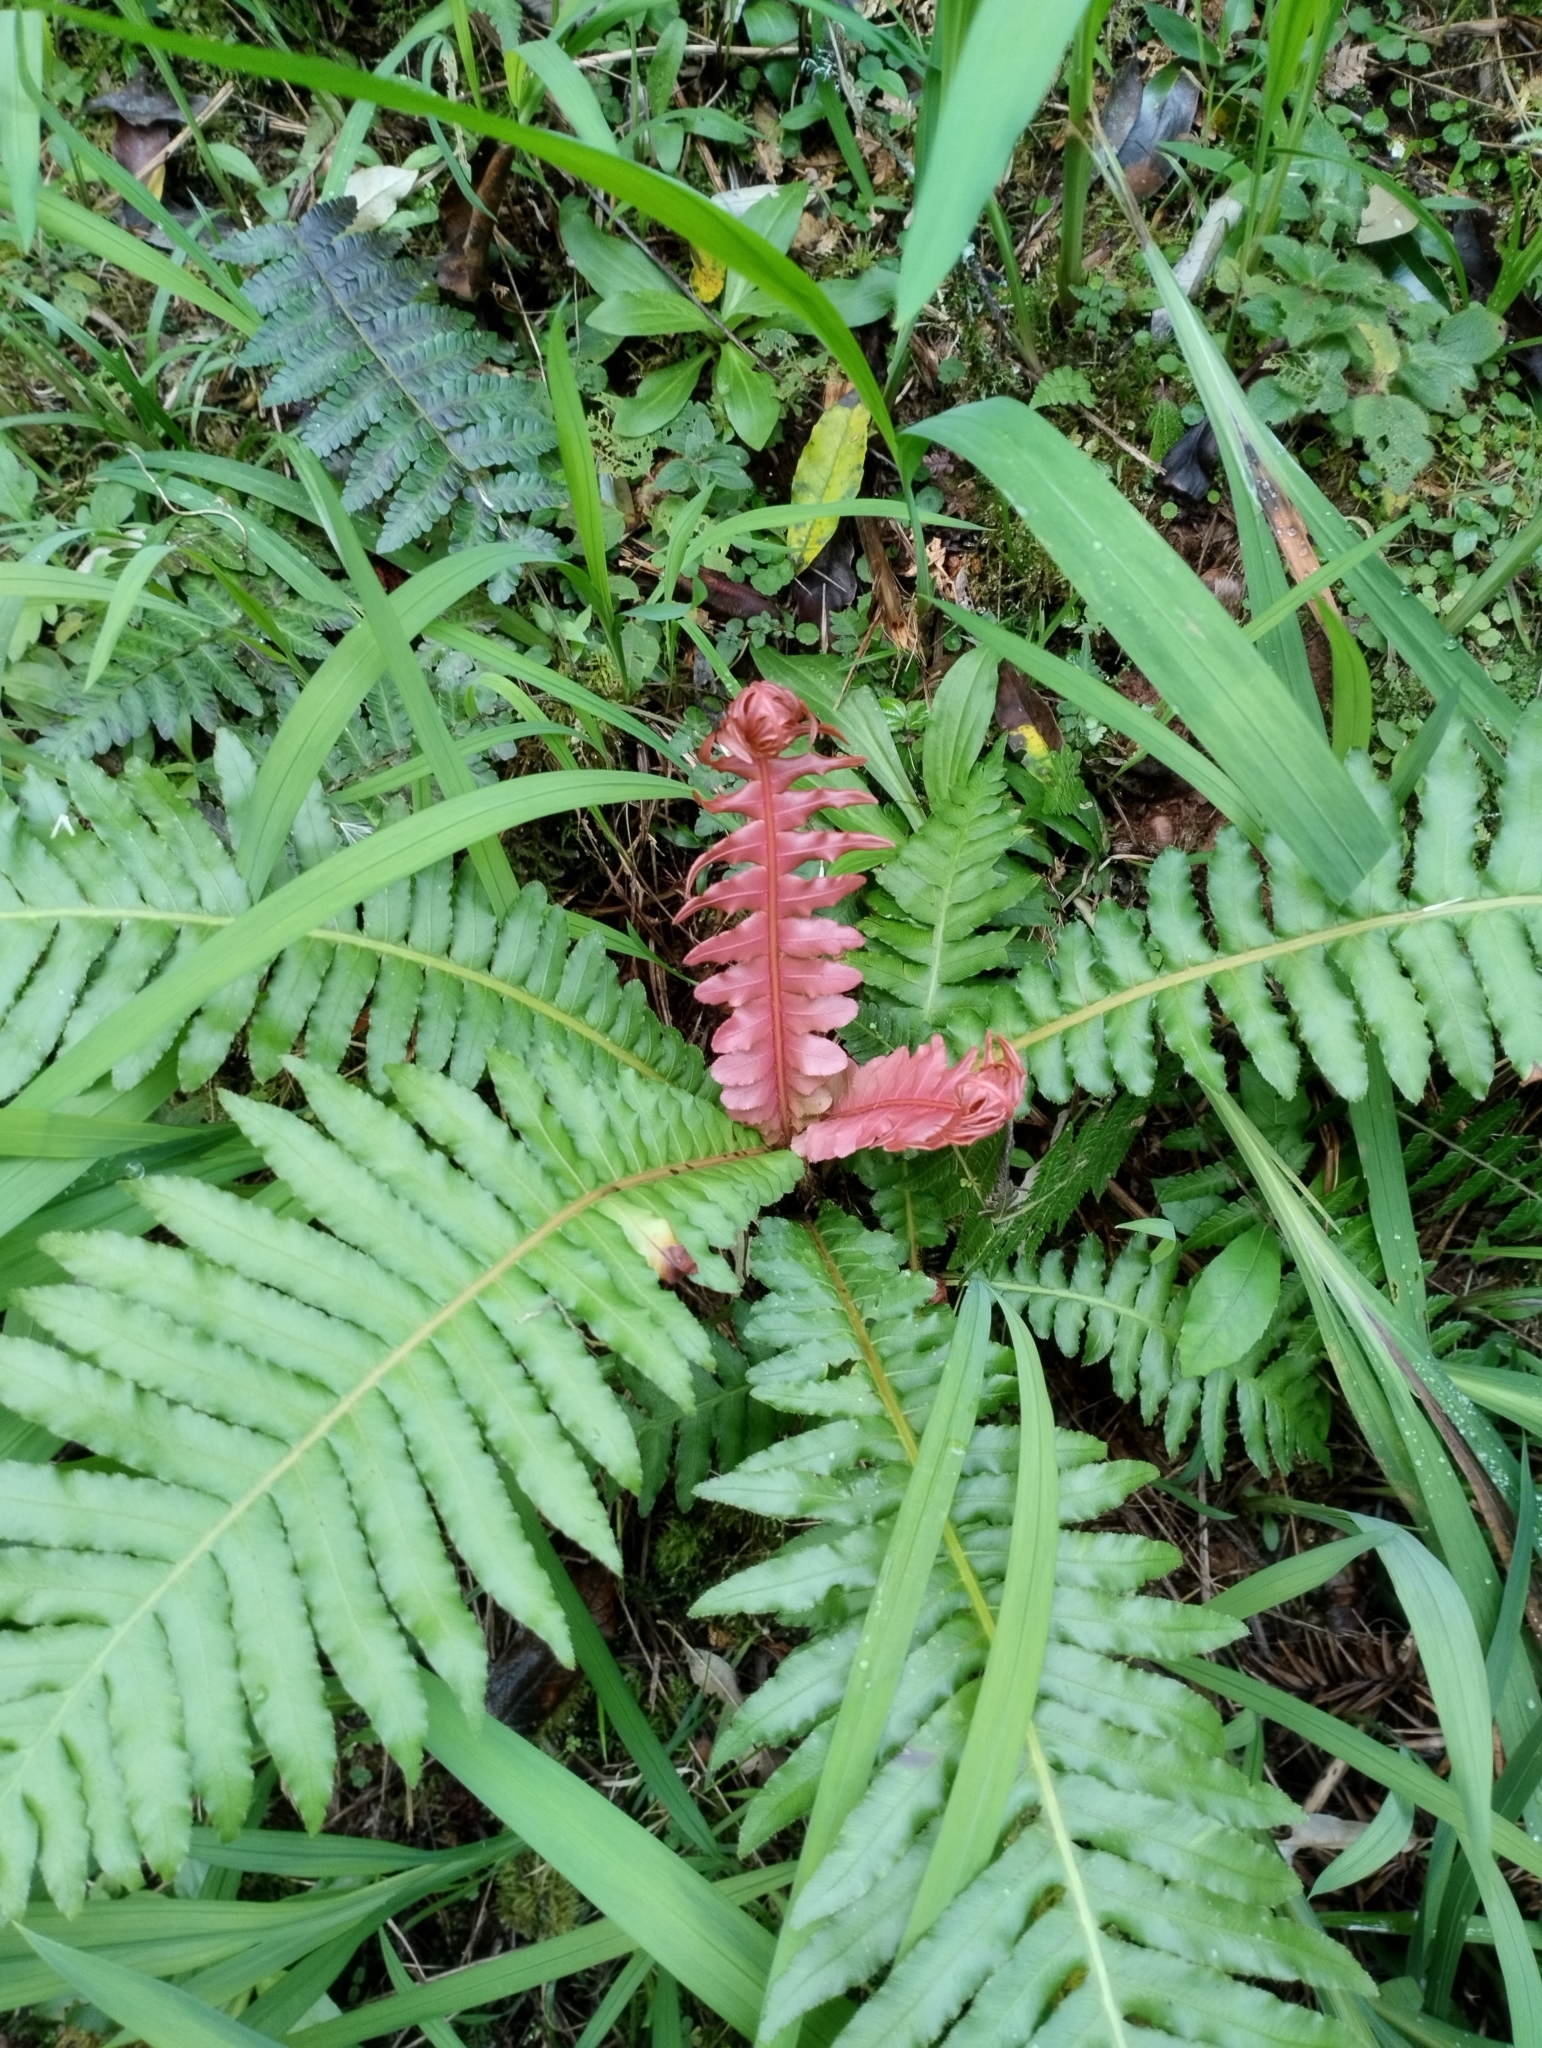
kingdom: Plantae
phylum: Tracheophyta
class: Polypodiopsida
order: Polypodiales
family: Blechnaceae
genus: Neoblechnum
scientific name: Neoblechnum brasiliense
